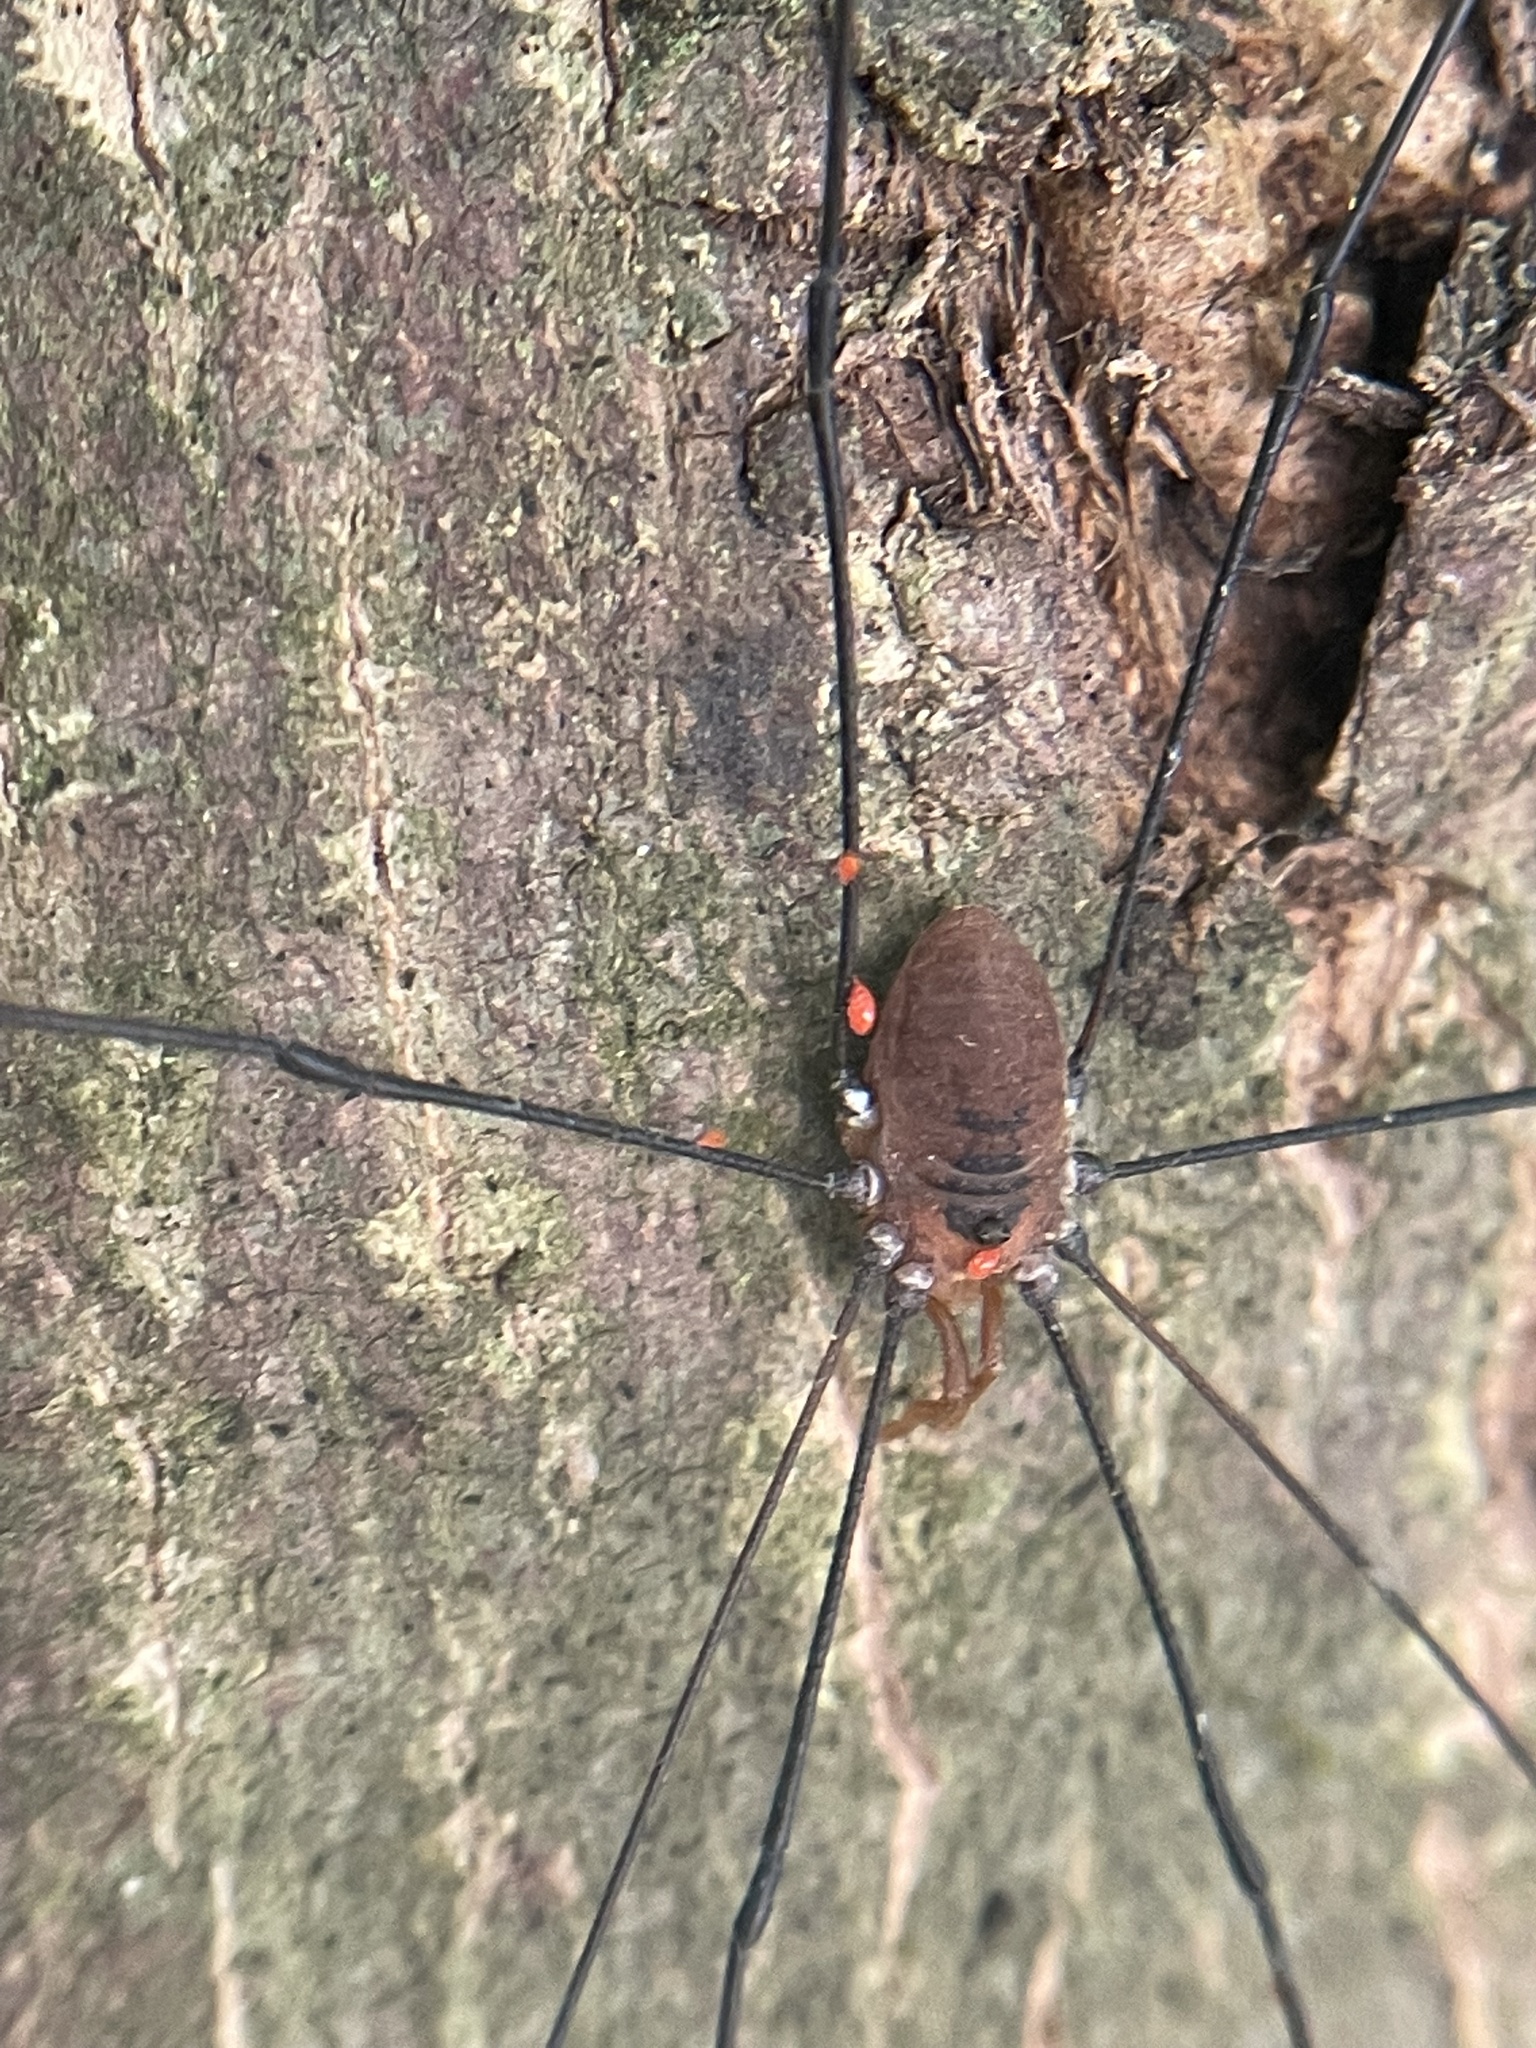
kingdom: Animalia
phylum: Arthropoda
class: Arachnida
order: Opiliones
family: Sclerosomatidae
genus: Leiobunum
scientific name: Leiobunum vittatum
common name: Eastern harvestman
